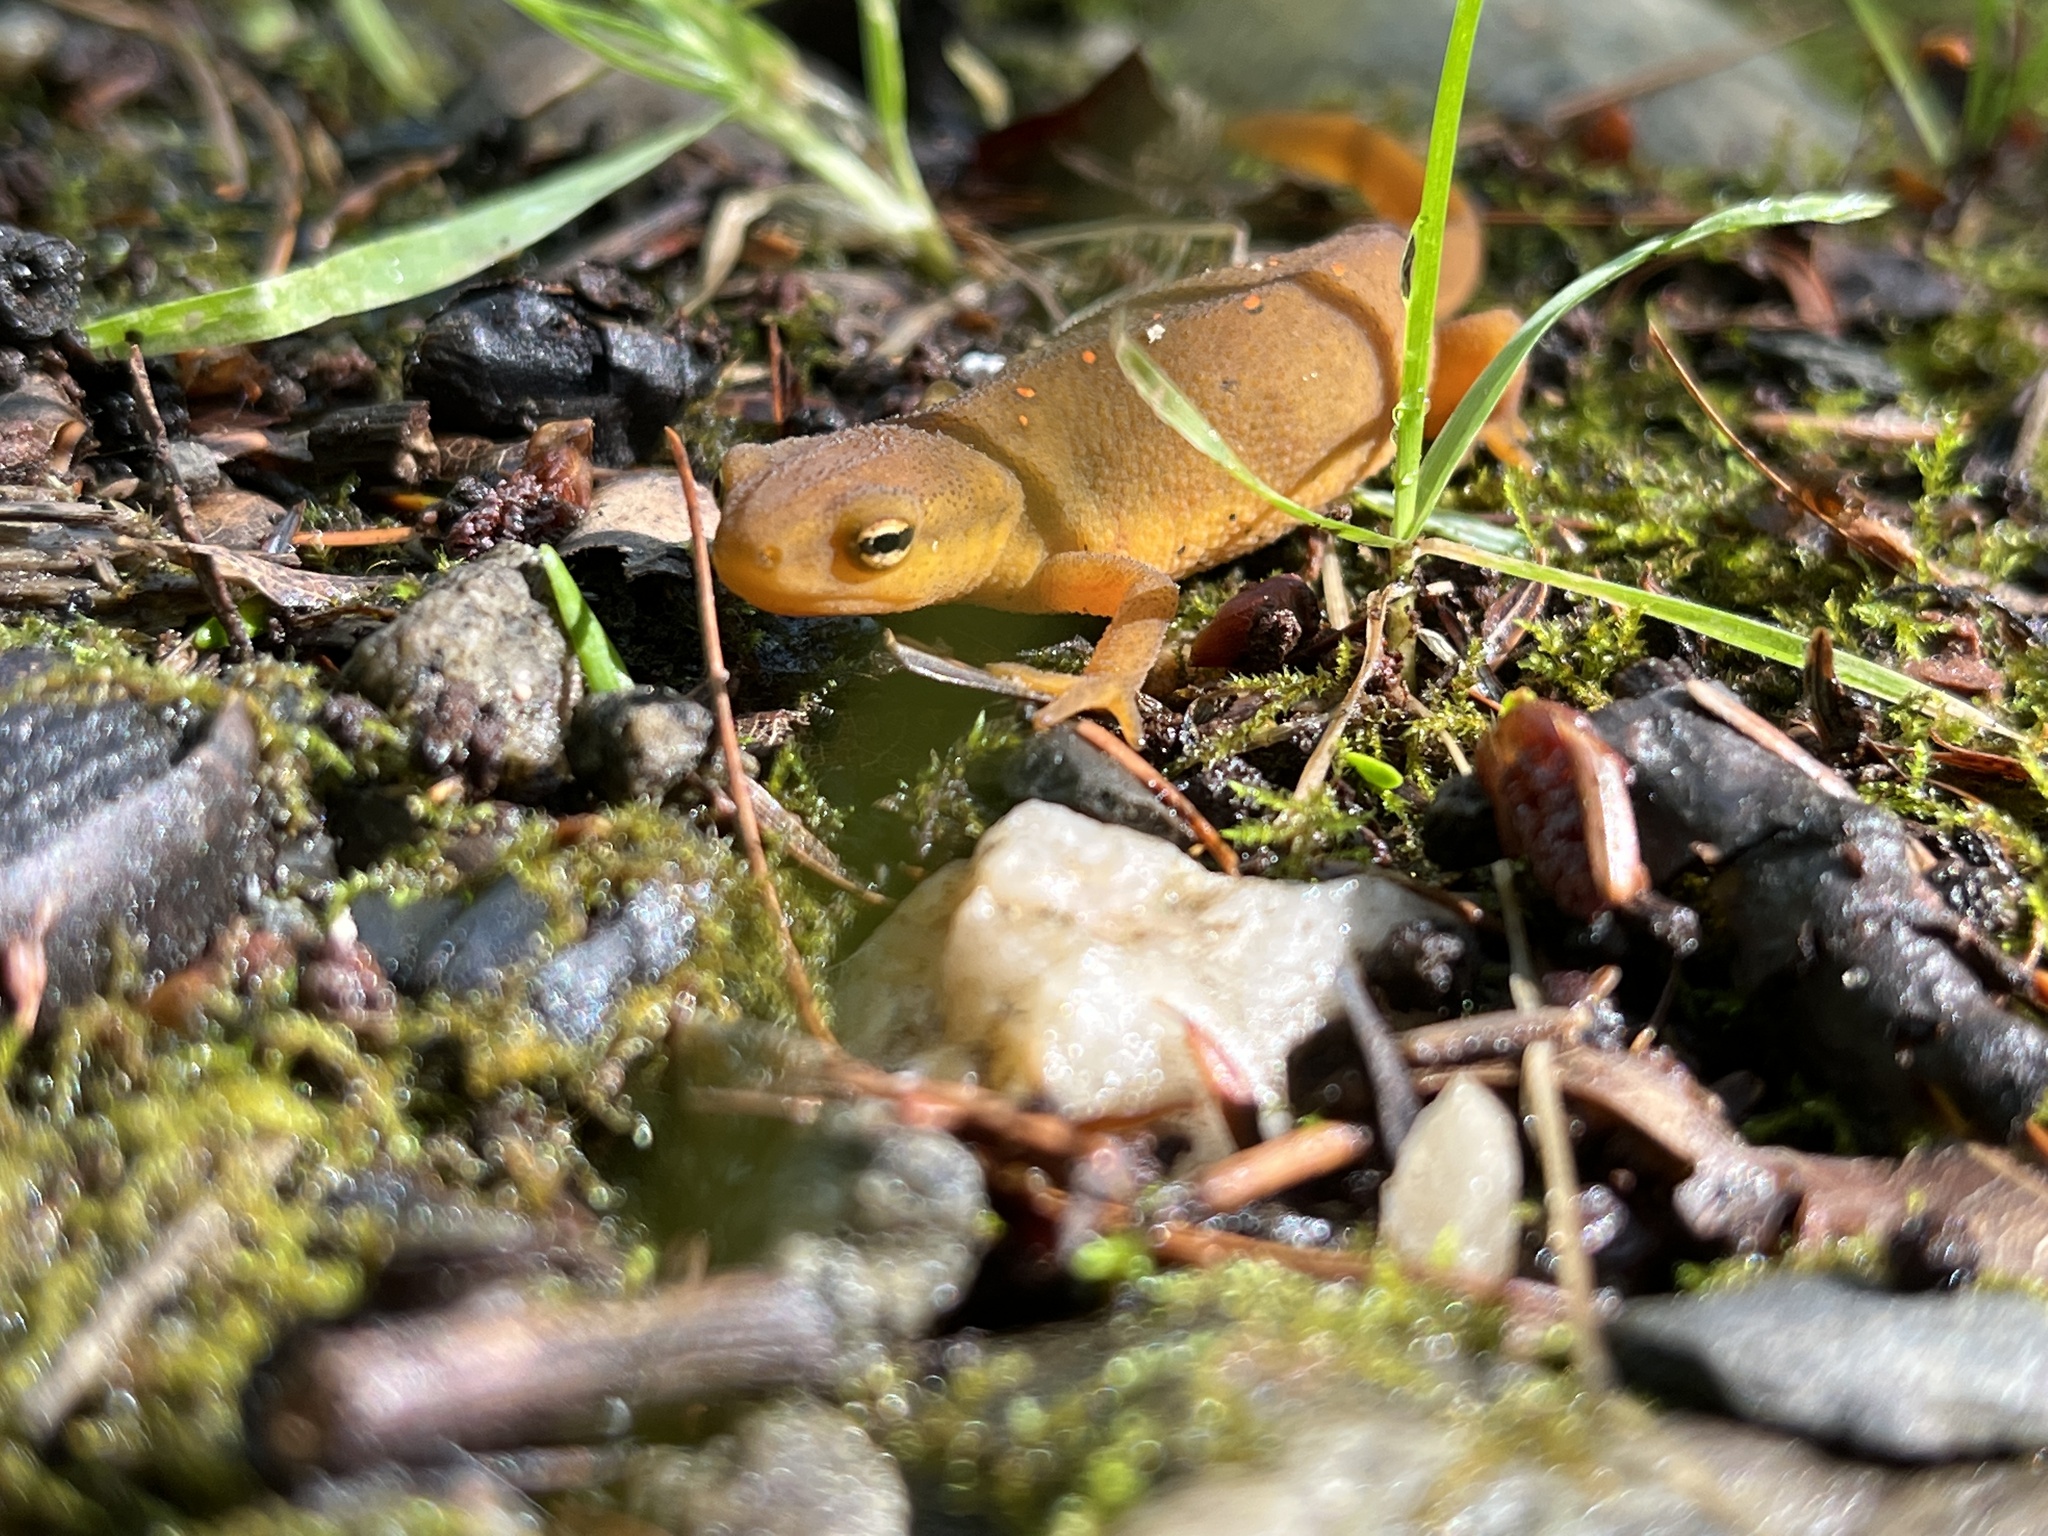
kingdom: Animalia
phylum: Chordata
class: Amphibia
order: Caudata
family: Salamandridae
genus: Notophthalmus
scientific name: Notophthalmus viridescens
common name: Eastern newt
